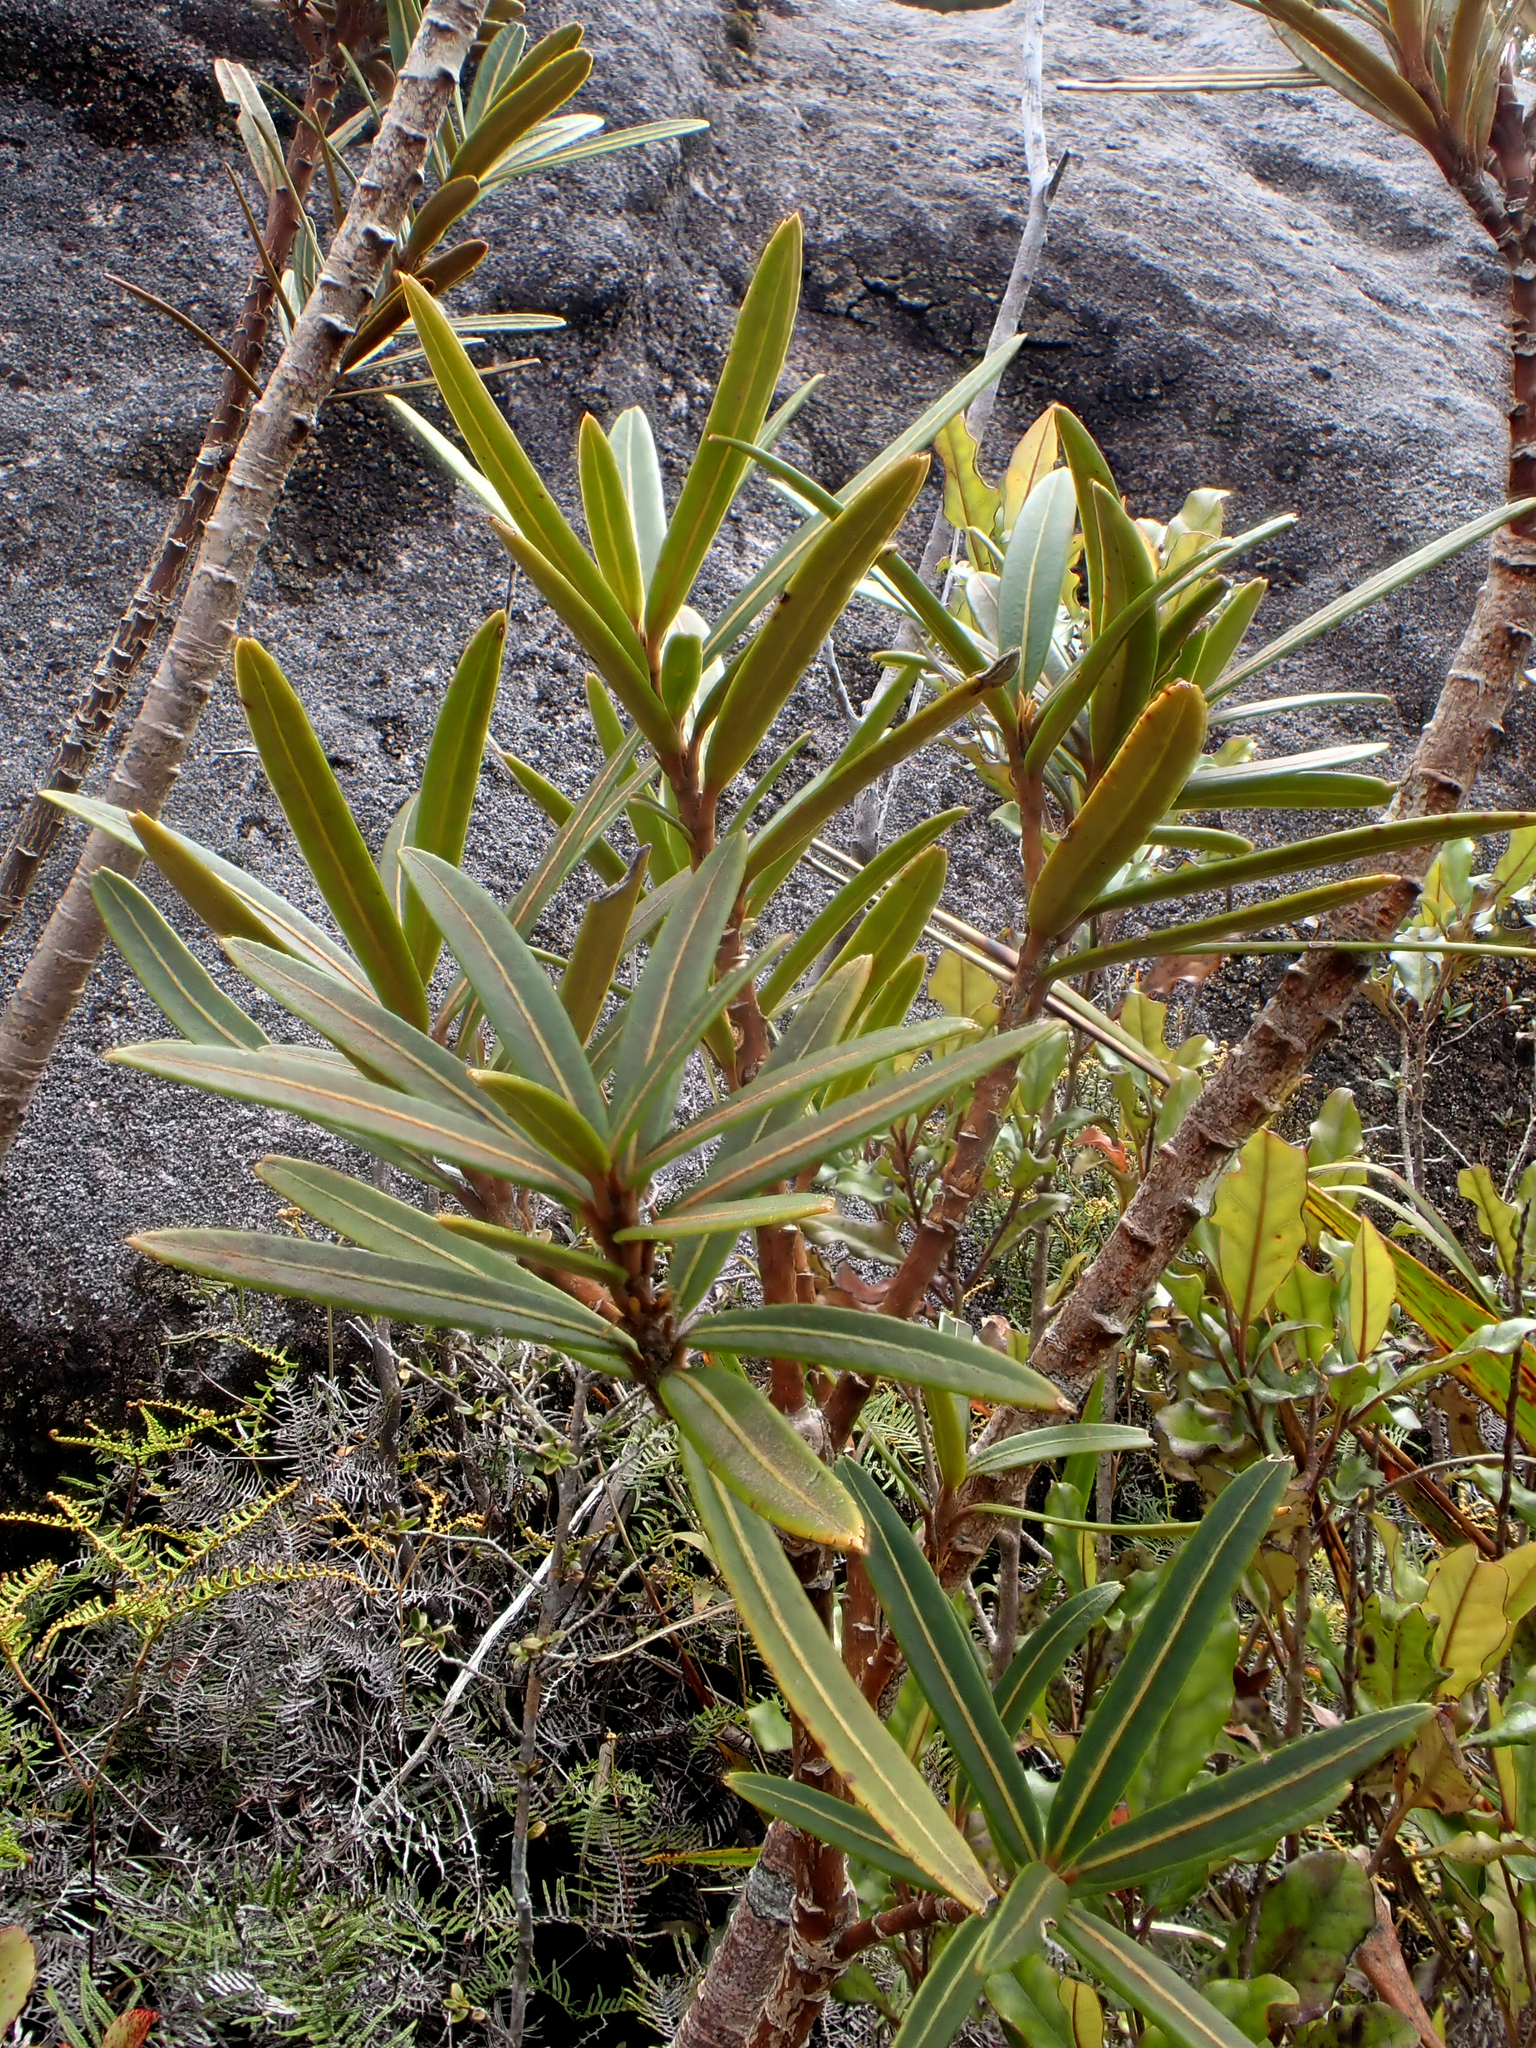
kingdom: Plantae
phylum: Tracheophyta
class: Magnoliopsida
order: Apiales
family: Araliaceae
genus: Pseudopanax
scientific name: Pseudopanax linearis
